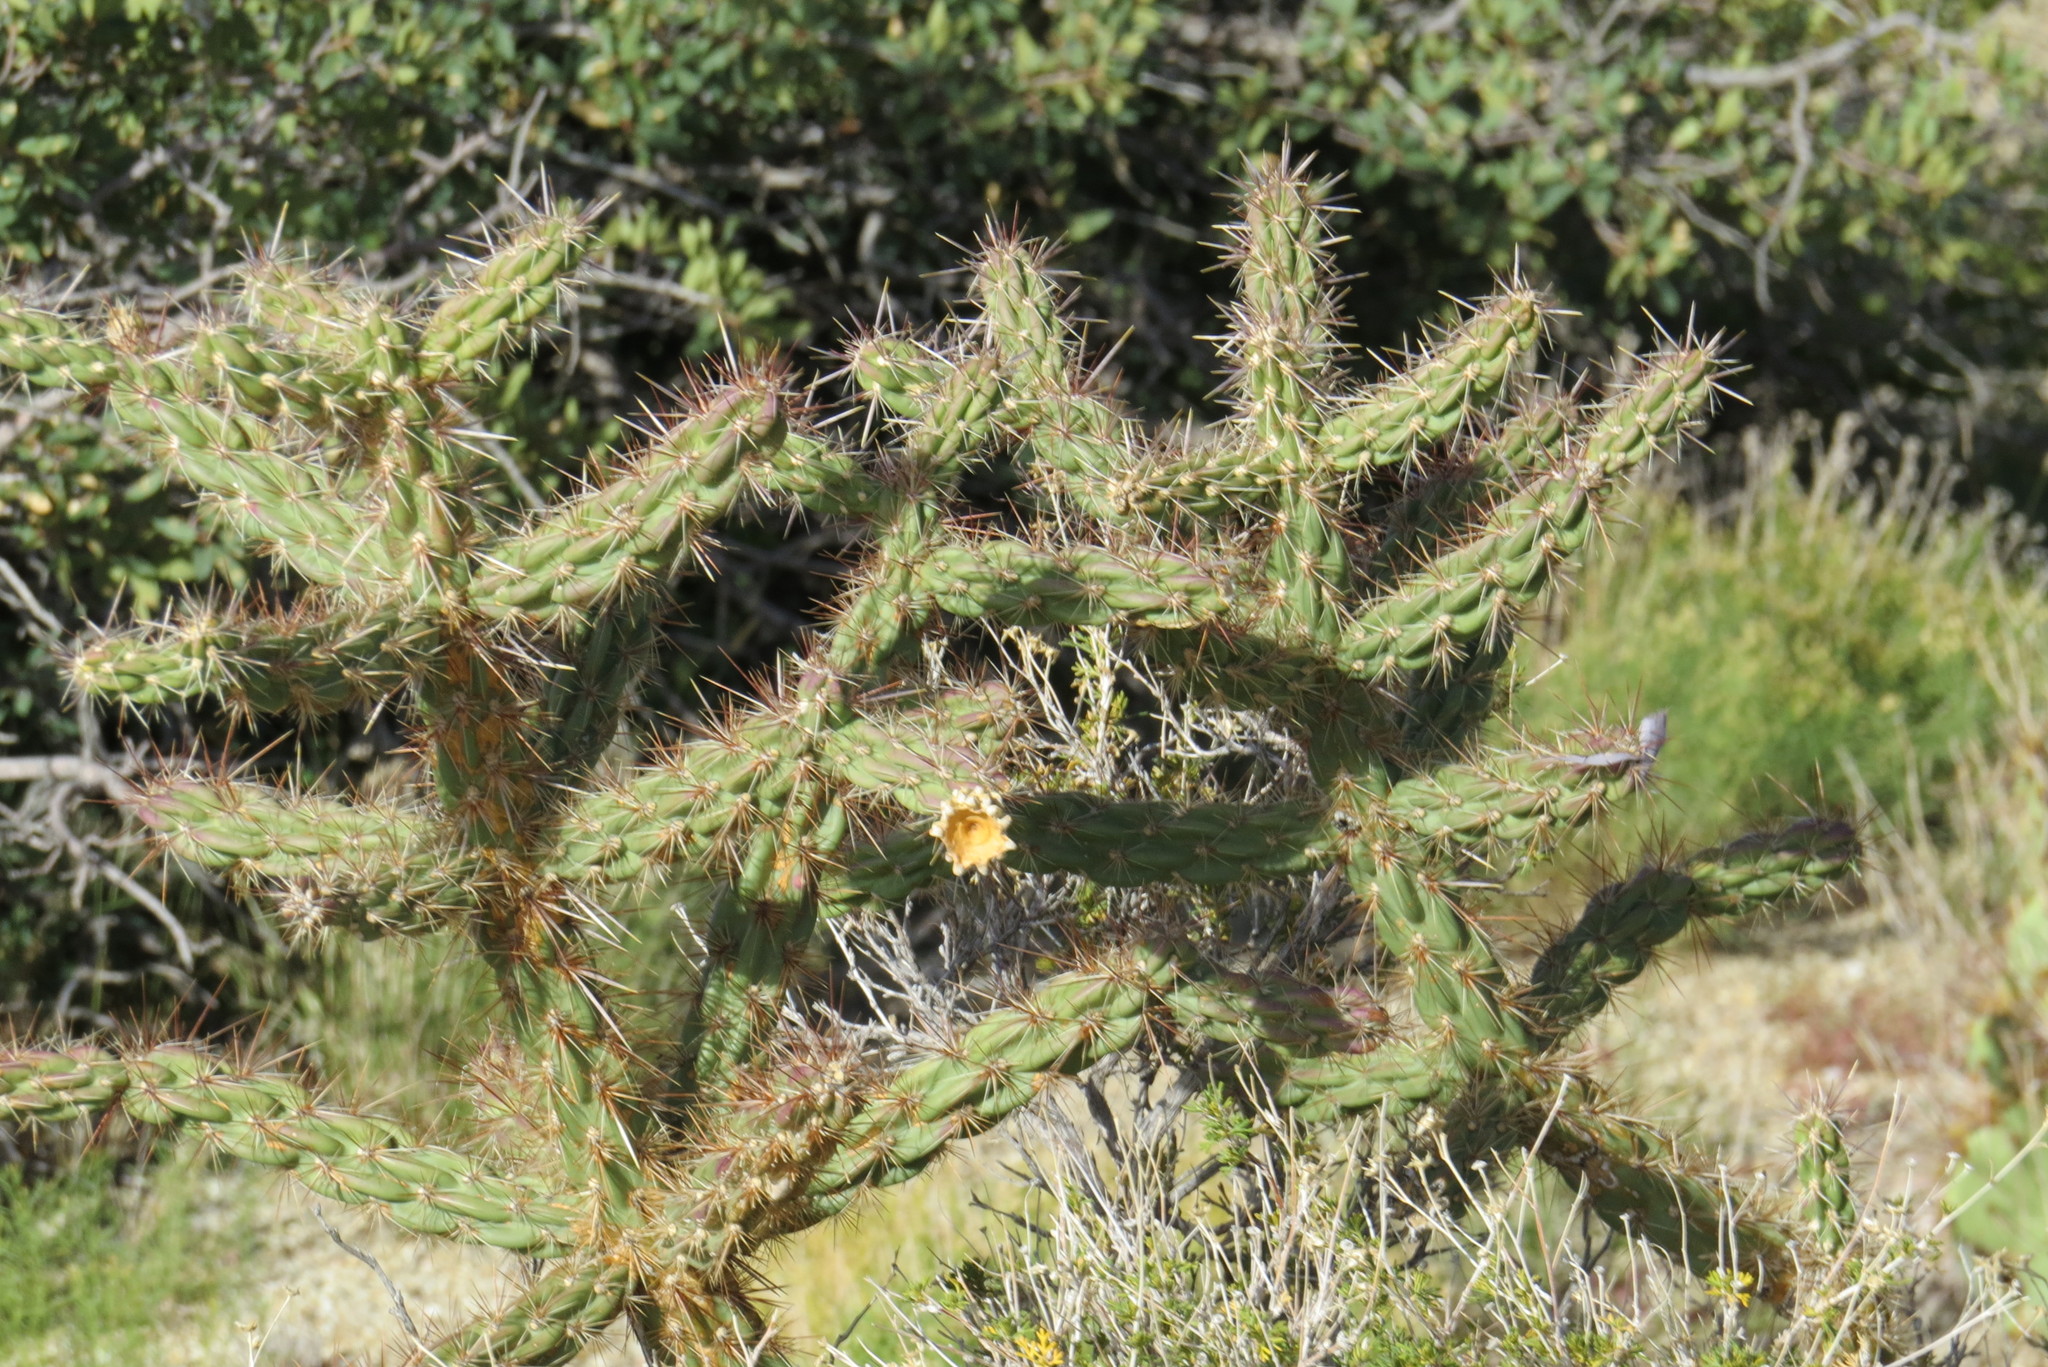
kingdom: Plantae
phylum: Tracheophyta
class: Magnoliopsida
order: Caryophyllales
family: Cactaceae
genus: Cylindropuntia
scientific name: Cylindropuntia imbricata
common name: Candelabrum cactus
